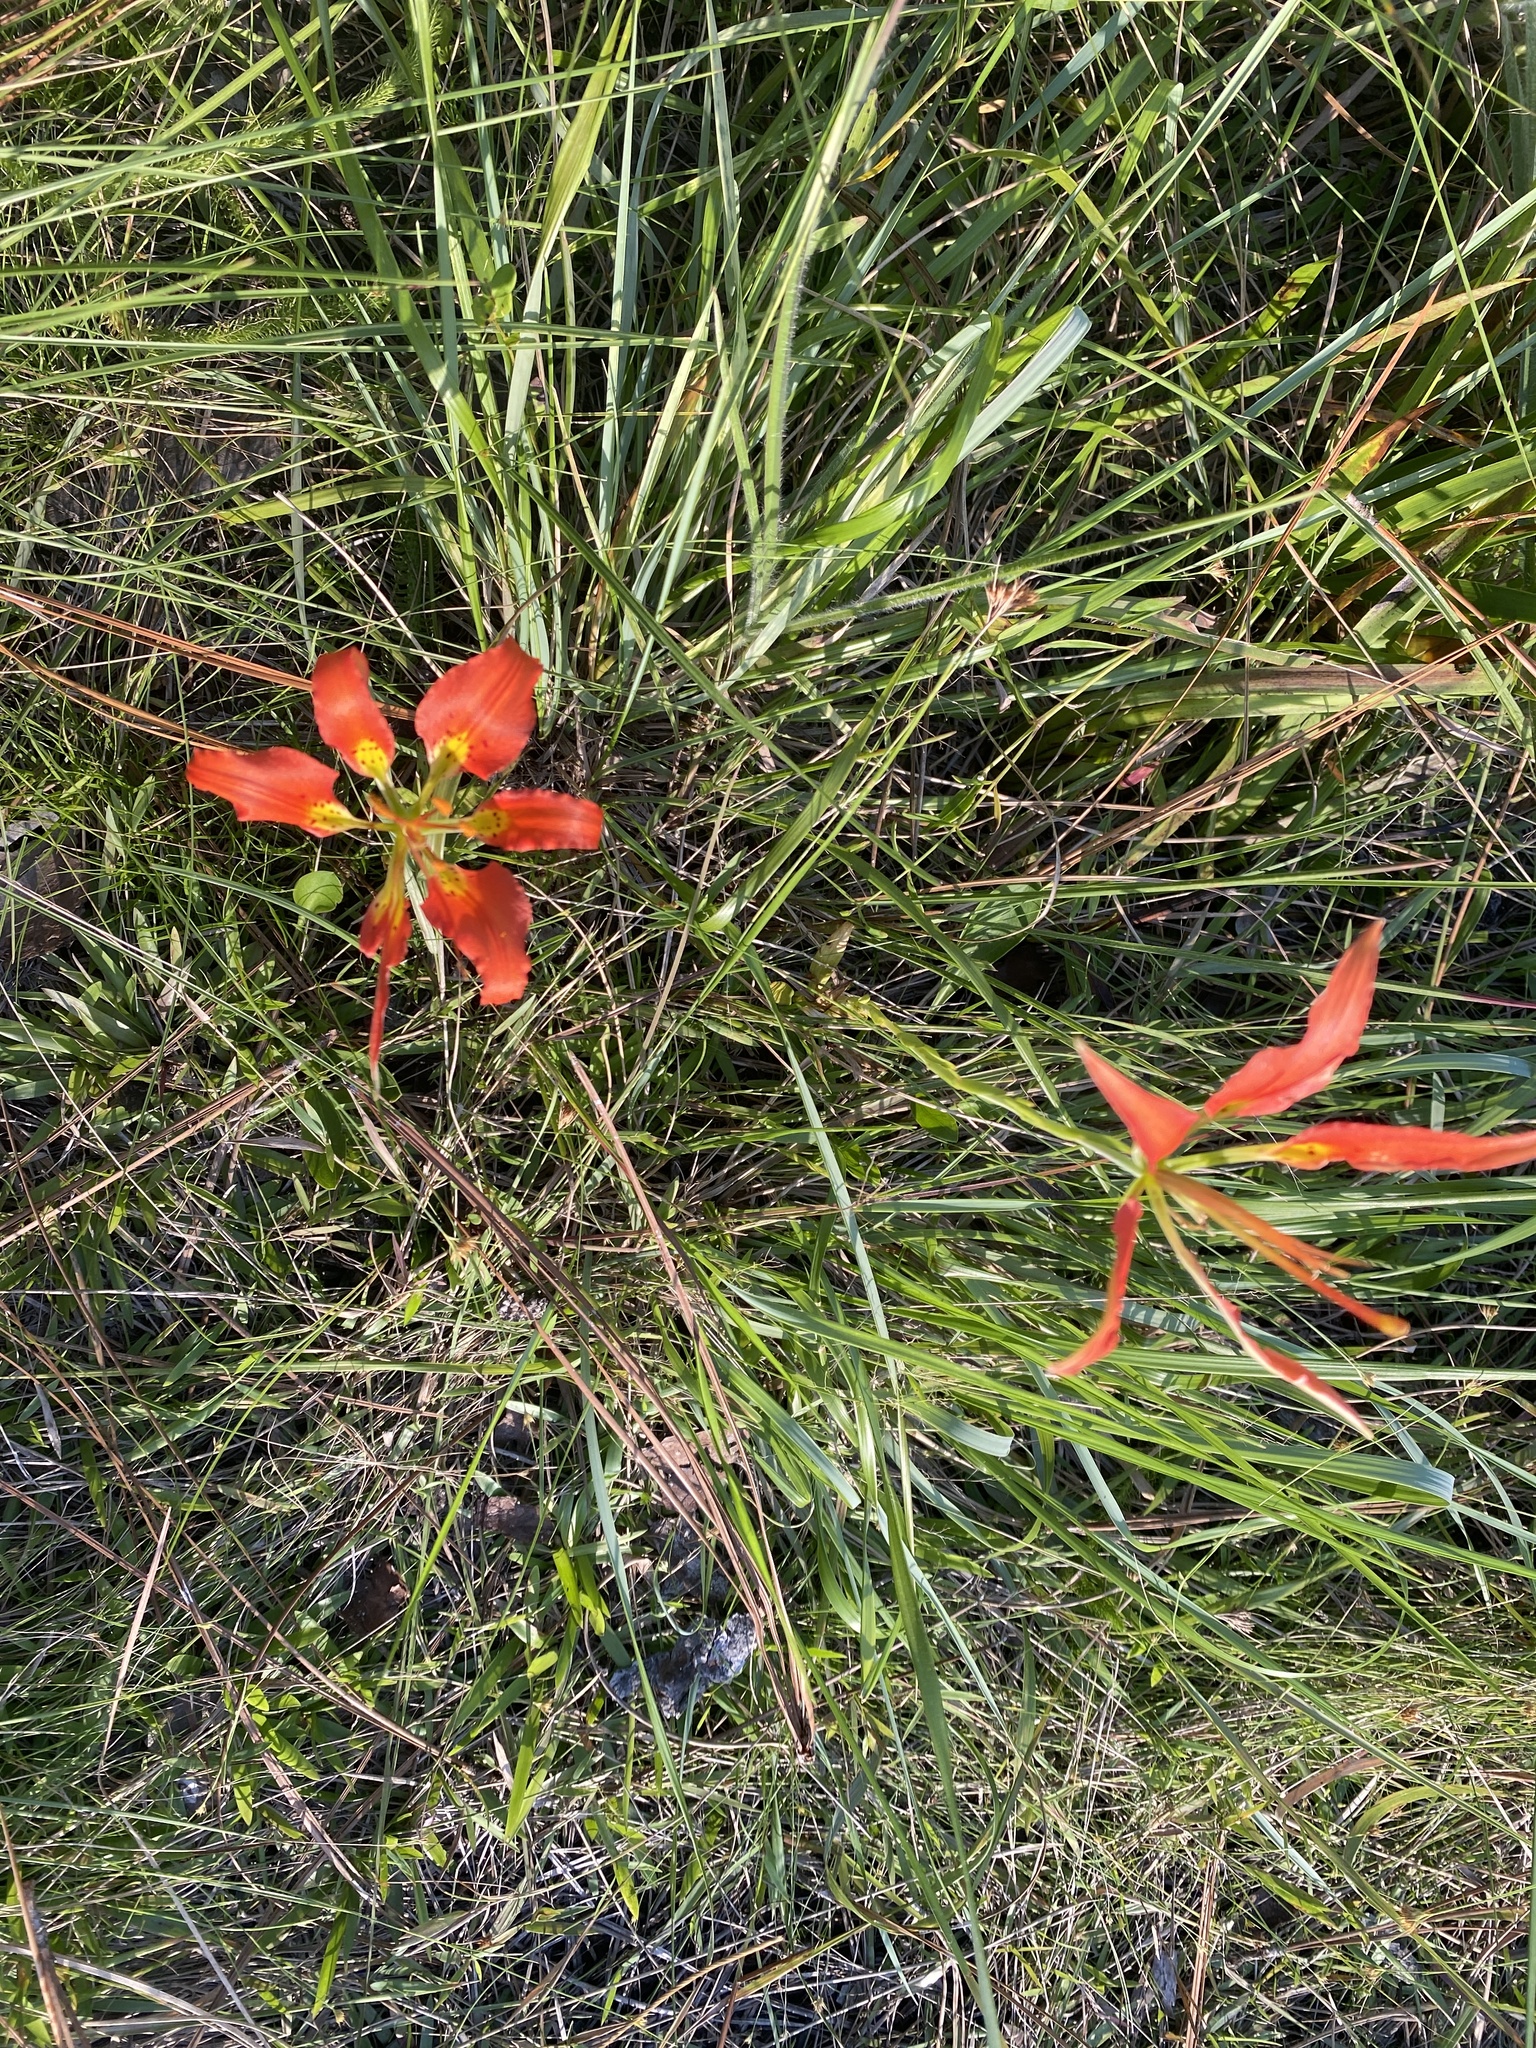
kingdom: Plantae
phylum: Tracheophyta
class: Liliopsida
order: Liliales
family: Liliaceae
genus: Lilium
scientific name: Lilium catesbaei
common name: Catesby's lily
